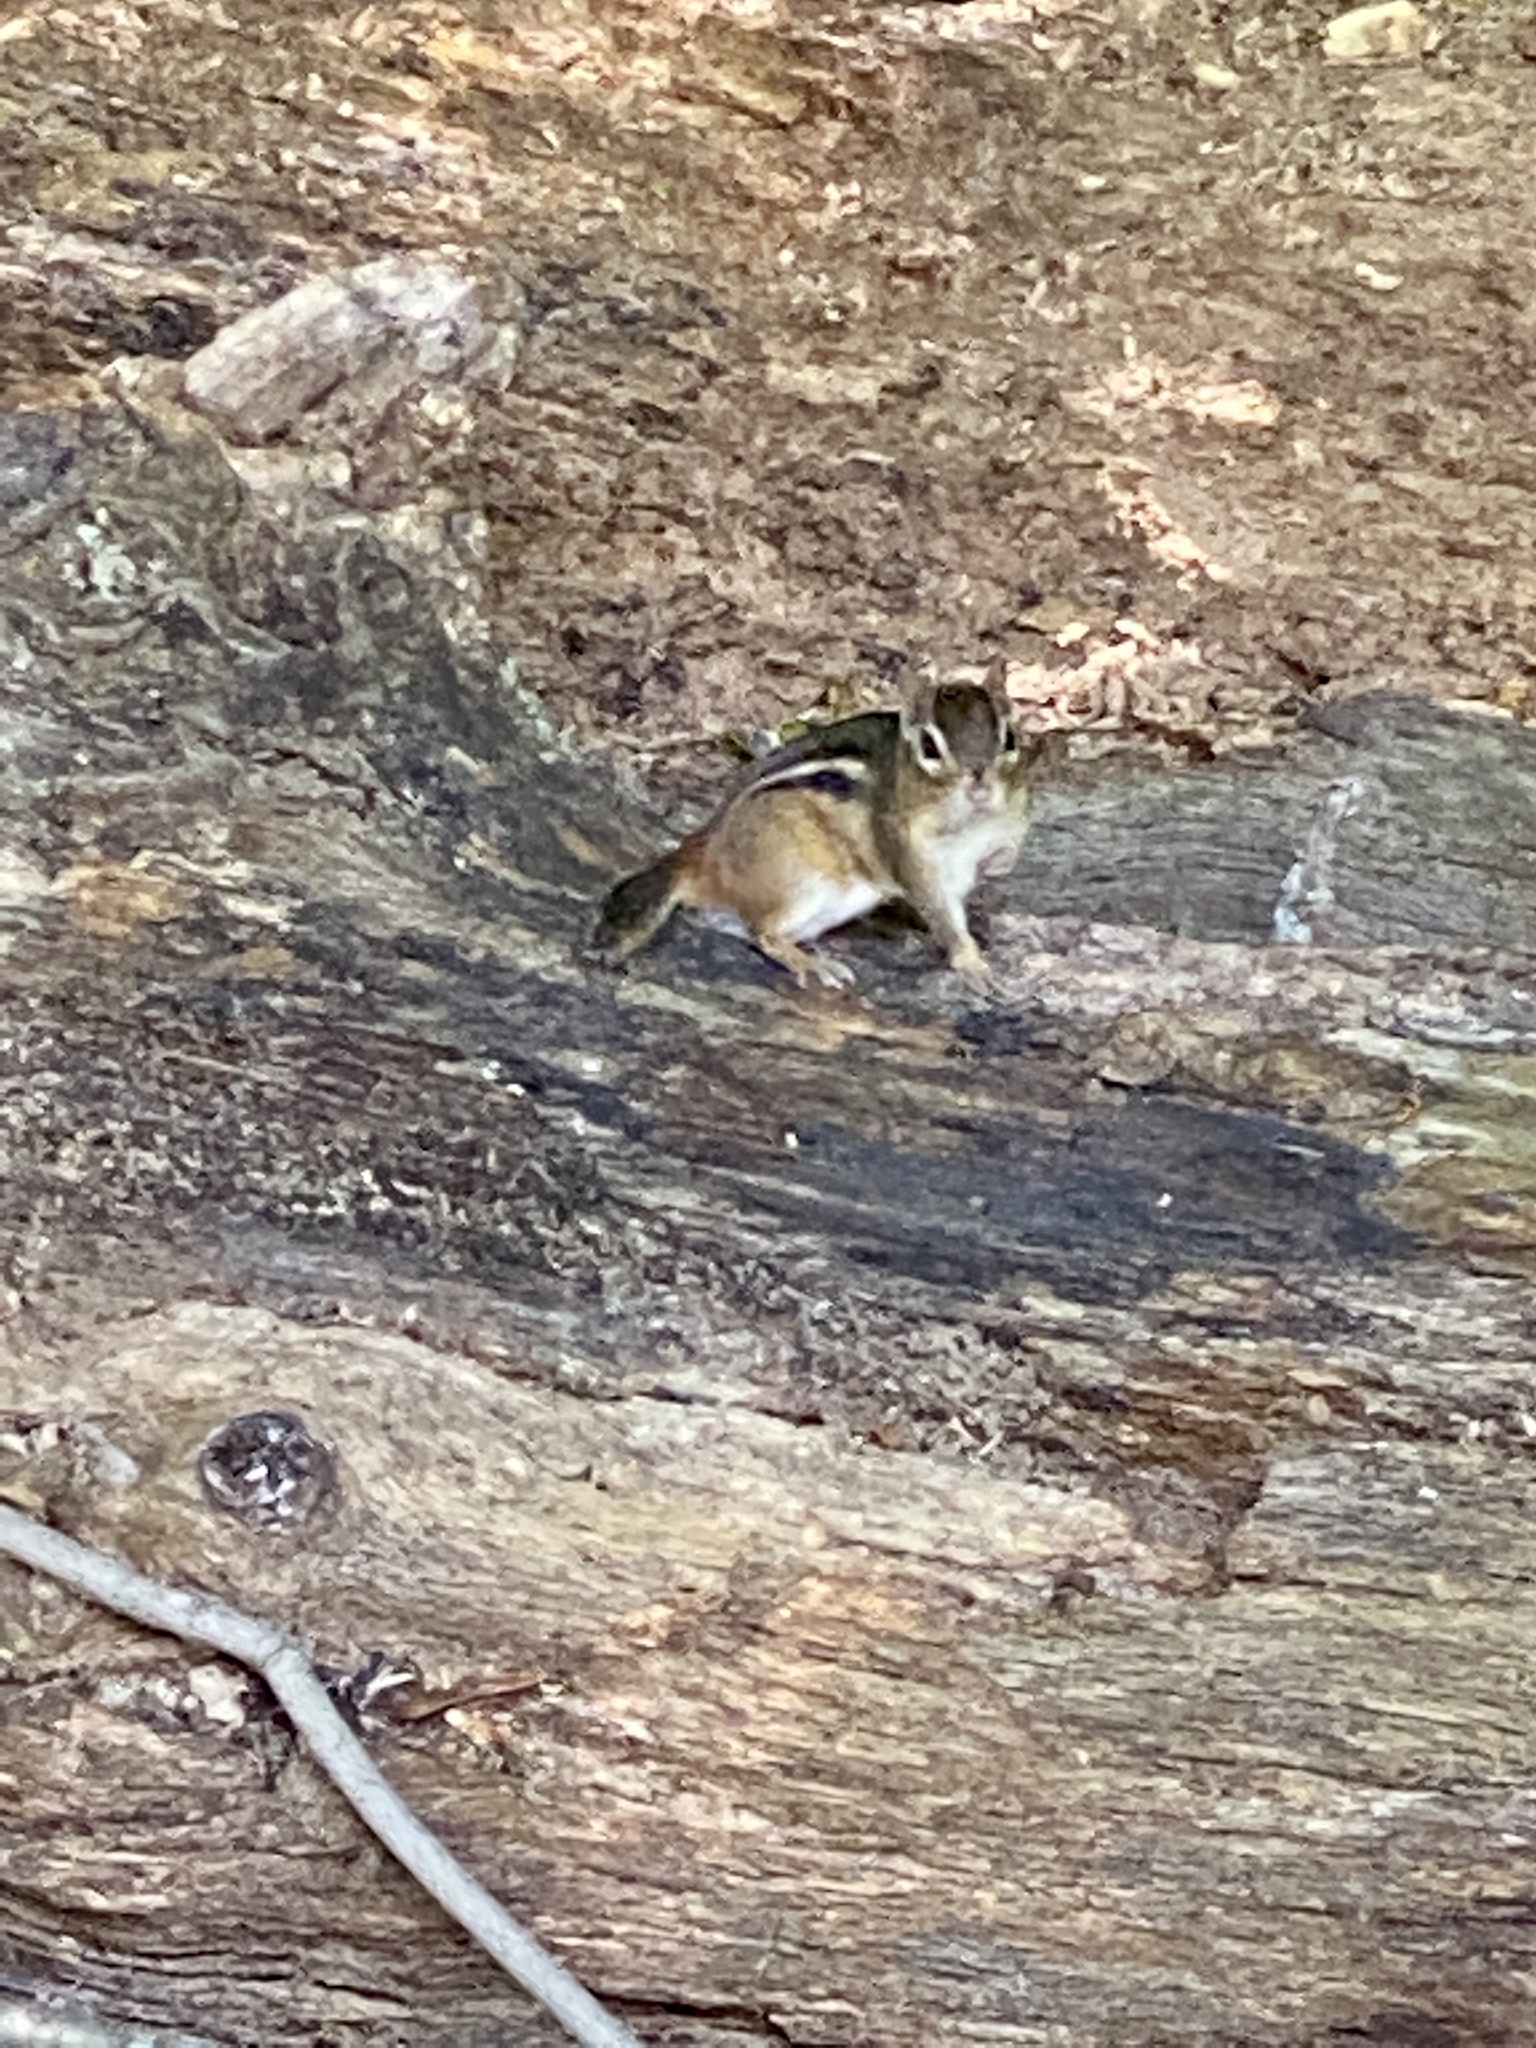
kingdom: Animalia
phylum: Chordata
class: Mammalia
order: Rodentia
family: Sciuridae
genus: Tamias
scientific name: Tamias striatus
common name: Eastern chipmunk
